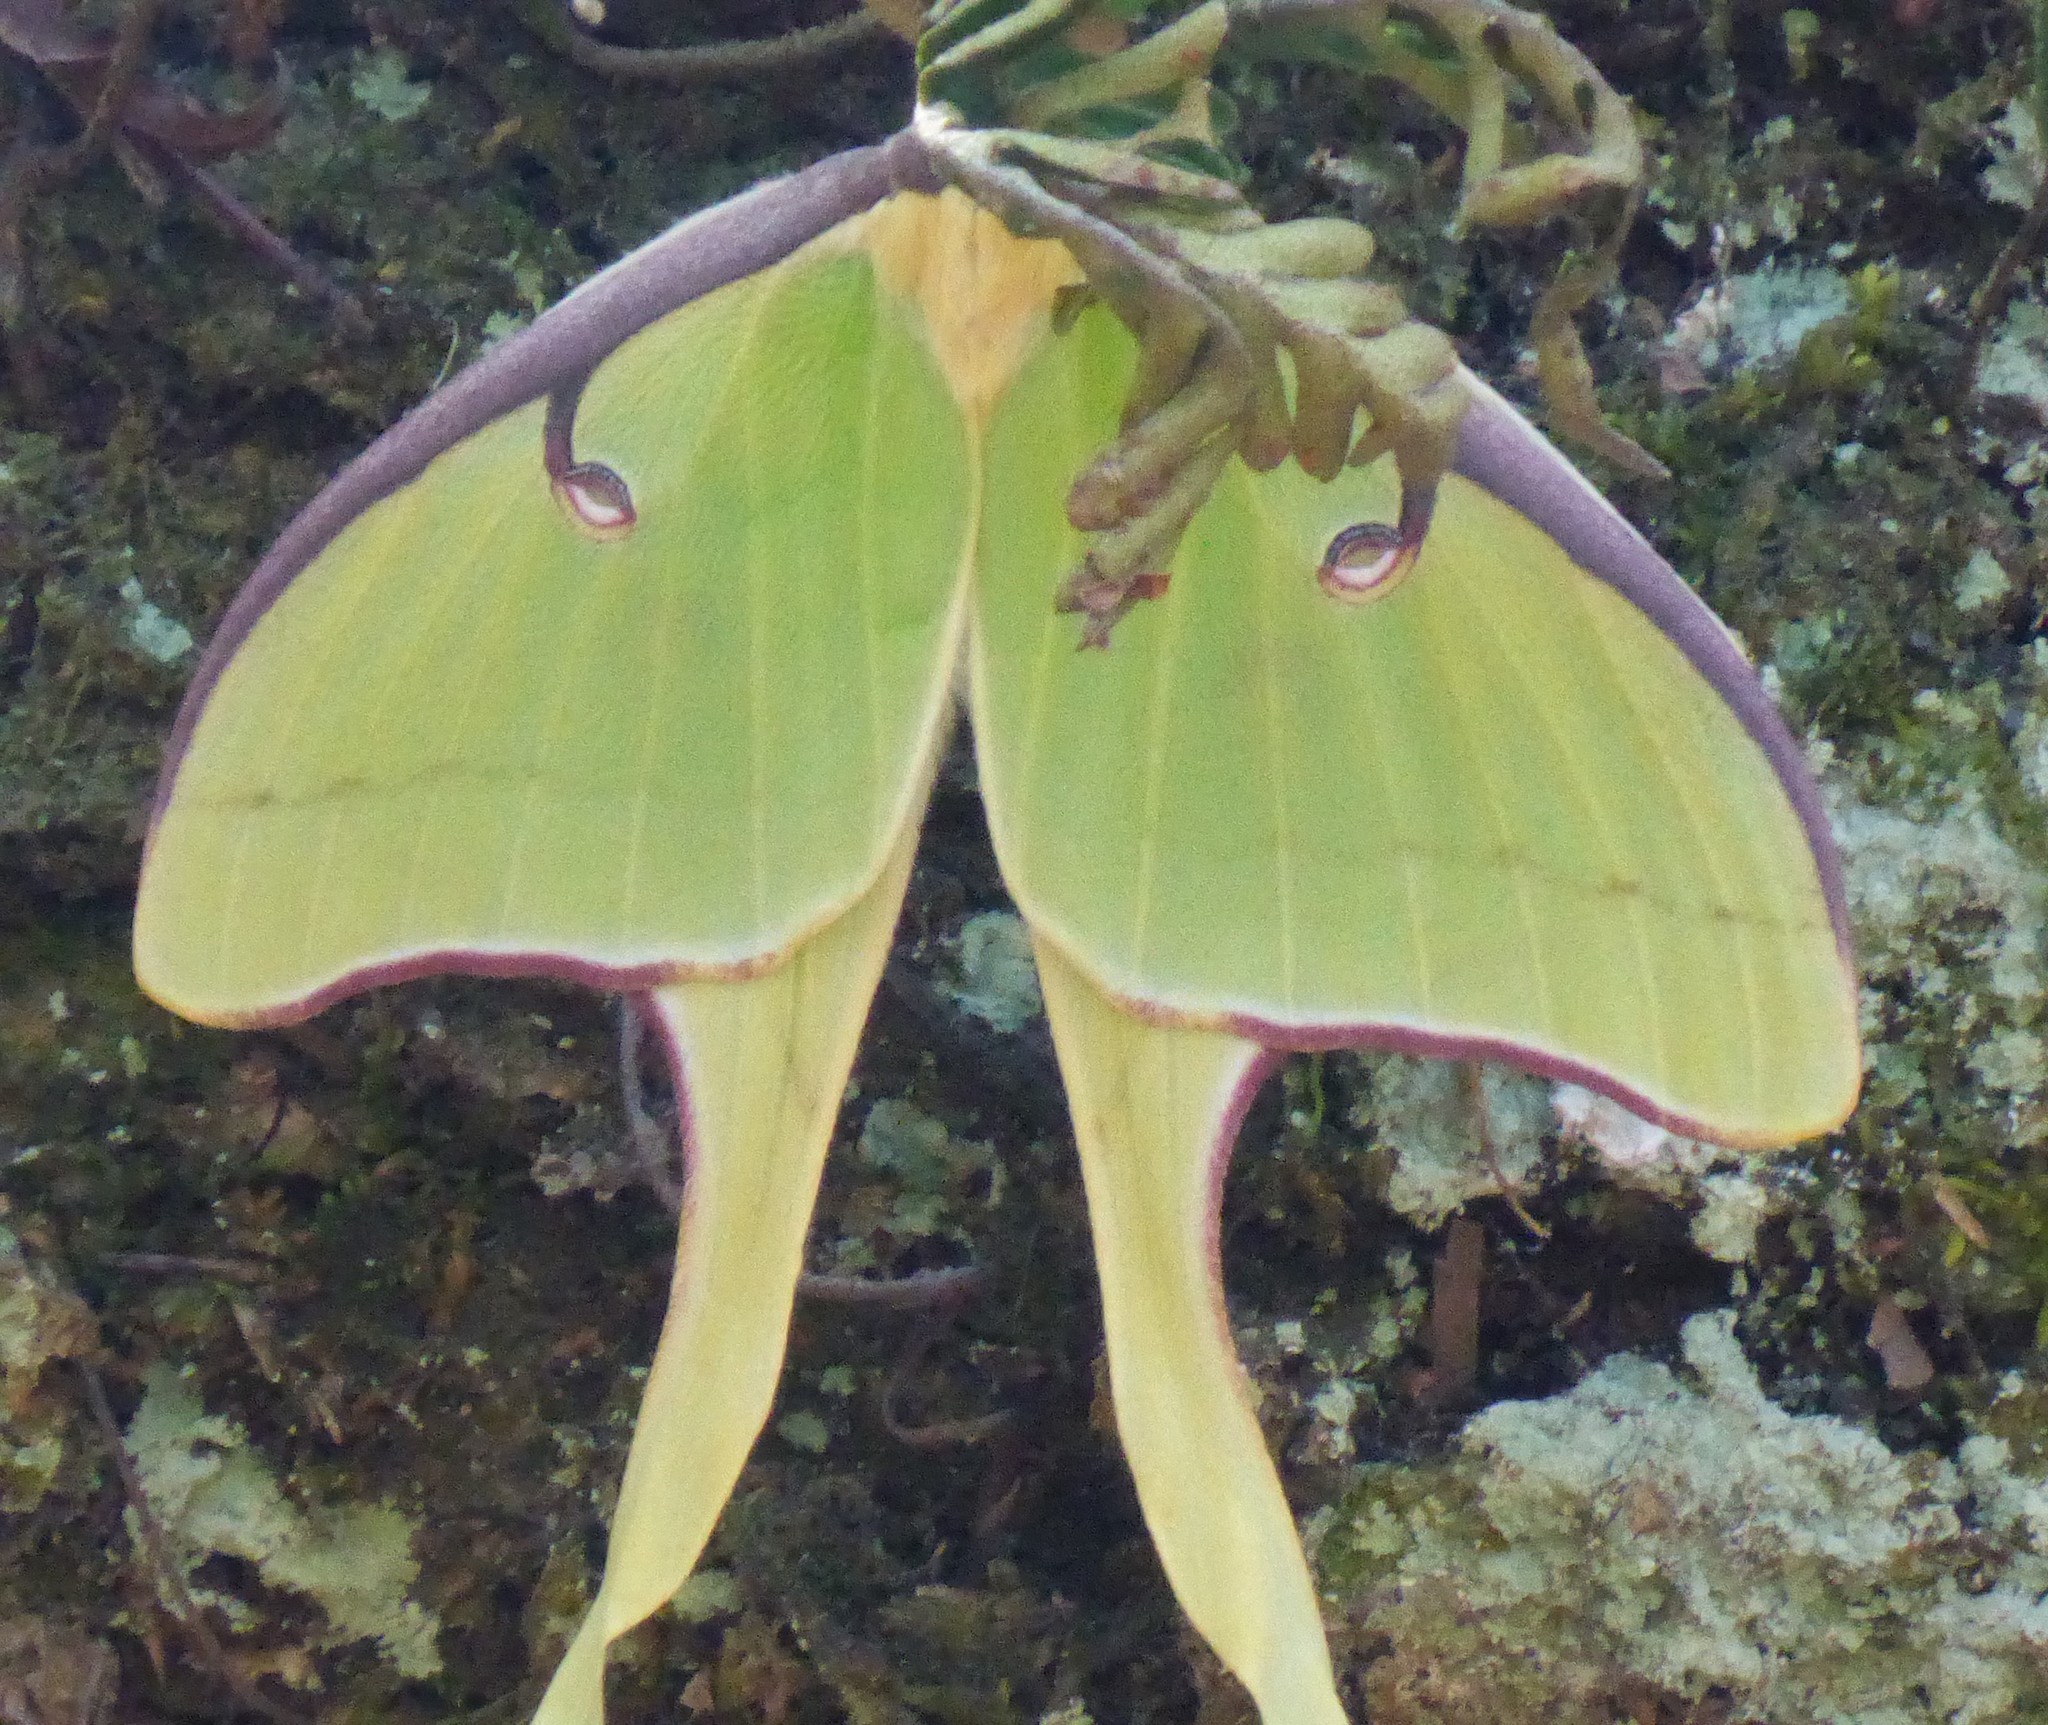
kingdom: Animalia
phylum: Arthropoda
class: Insecta
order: Lepidoptera
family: Saturniidae
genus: Actias
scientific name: Actias luna
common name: Luna moth
